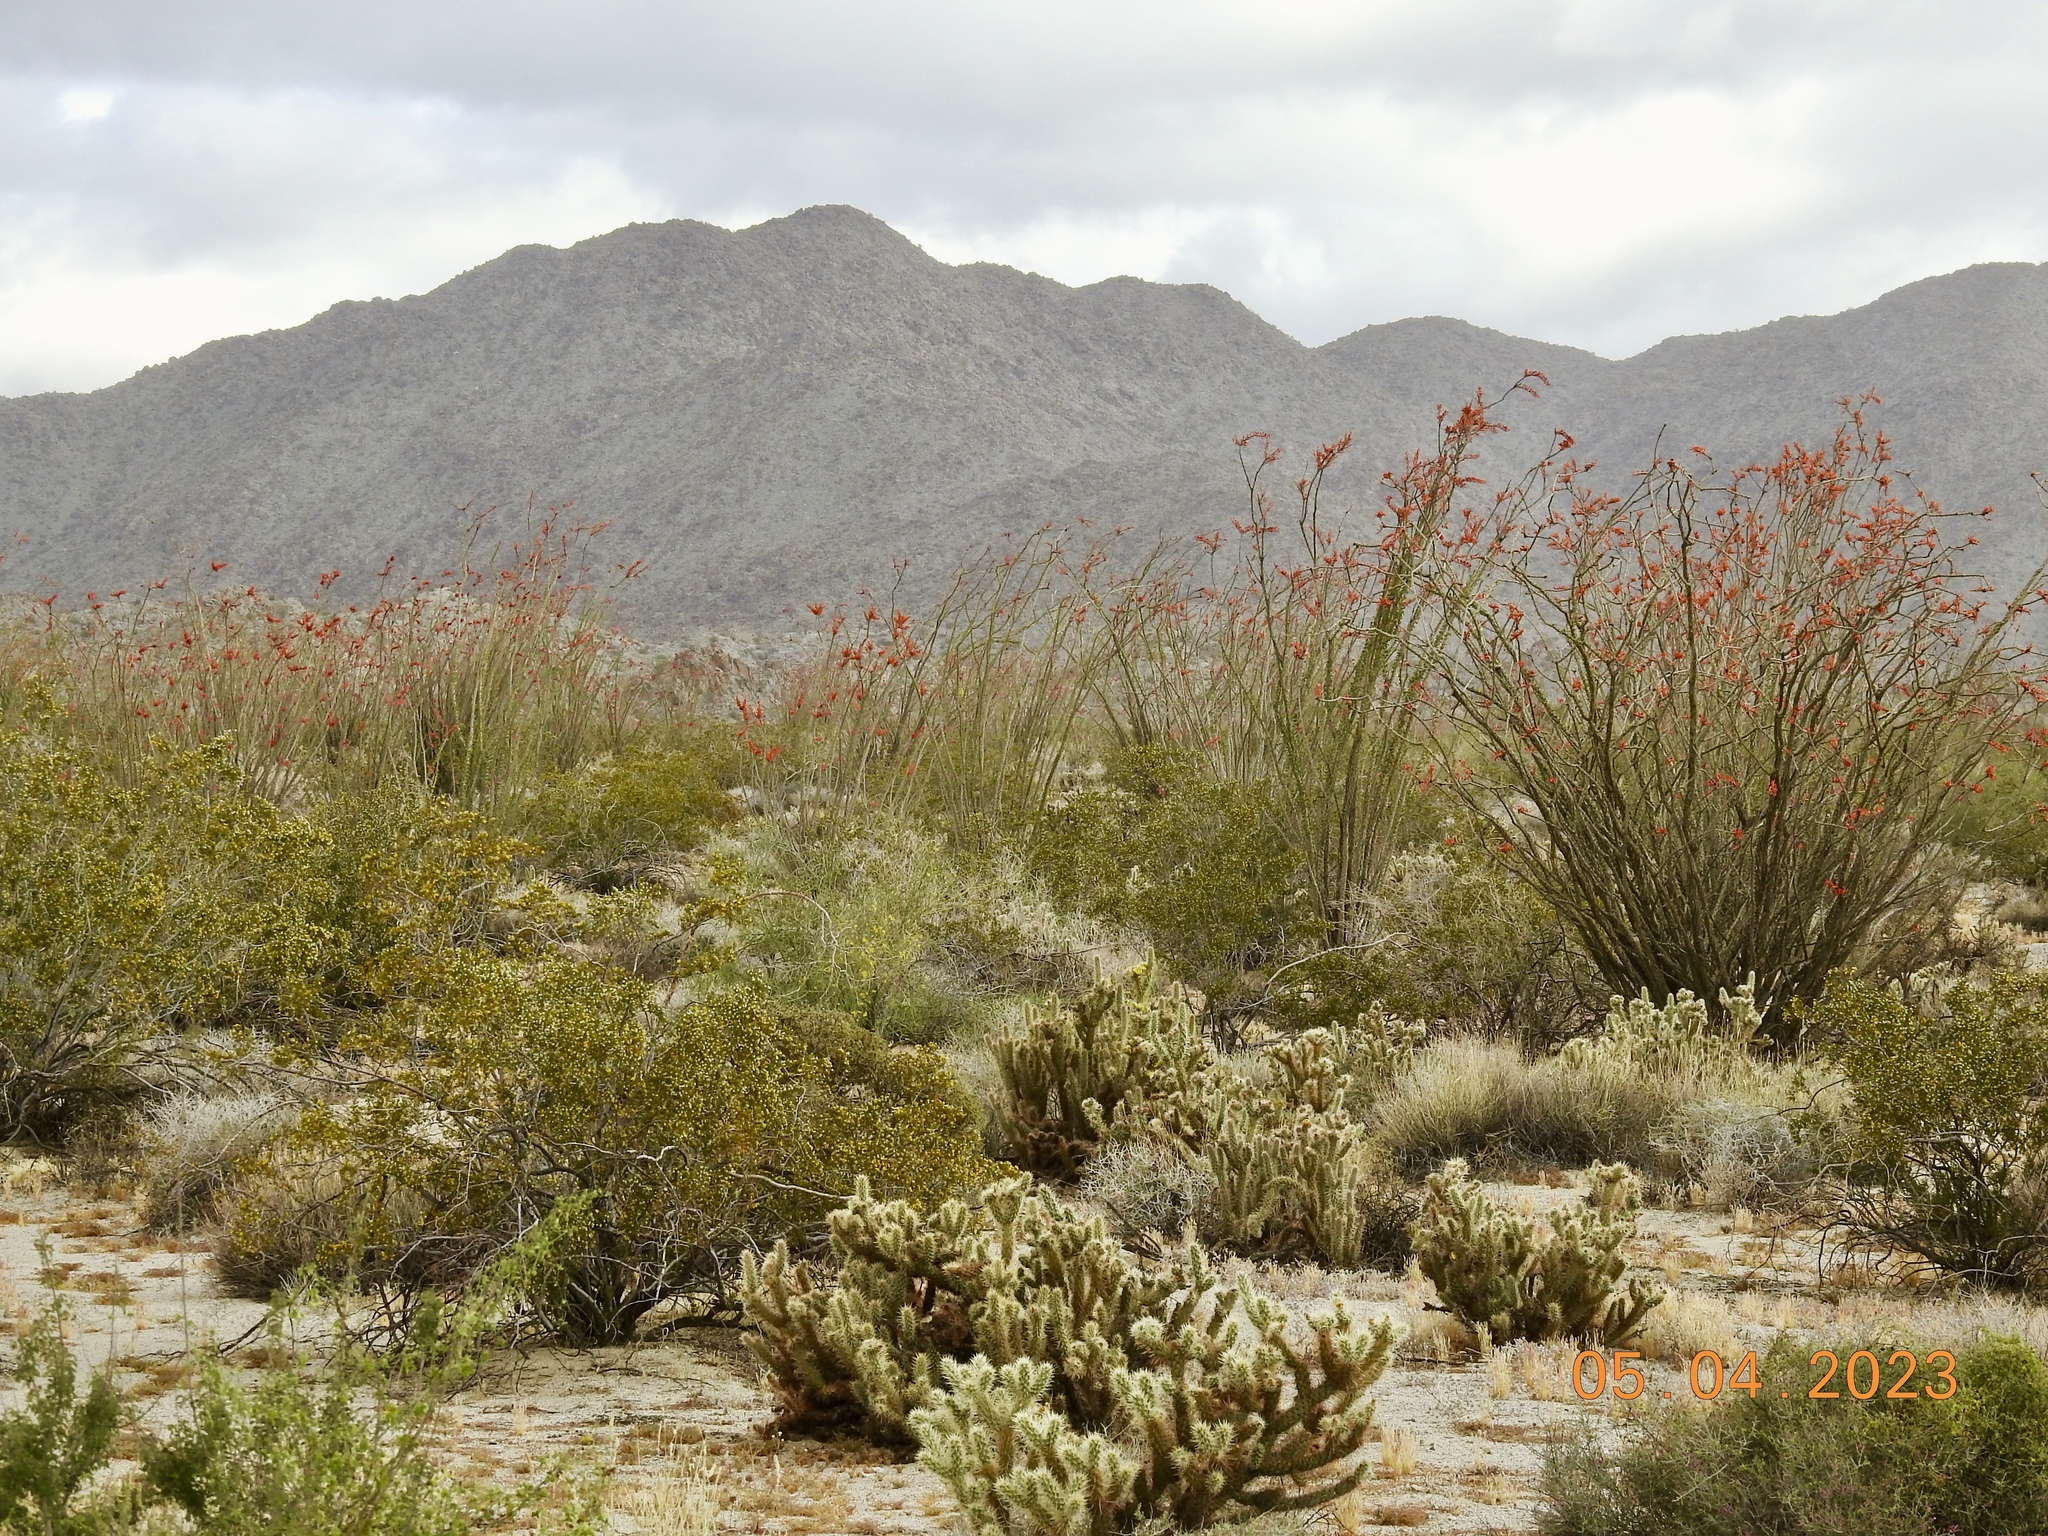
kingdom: Plantae
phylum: Tracheophyta
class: Magnoliopsida
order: Ericales
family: Fouquieriaceae
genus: Fouquieria
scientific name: Fouquieria splendens
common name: Vine-cactus
